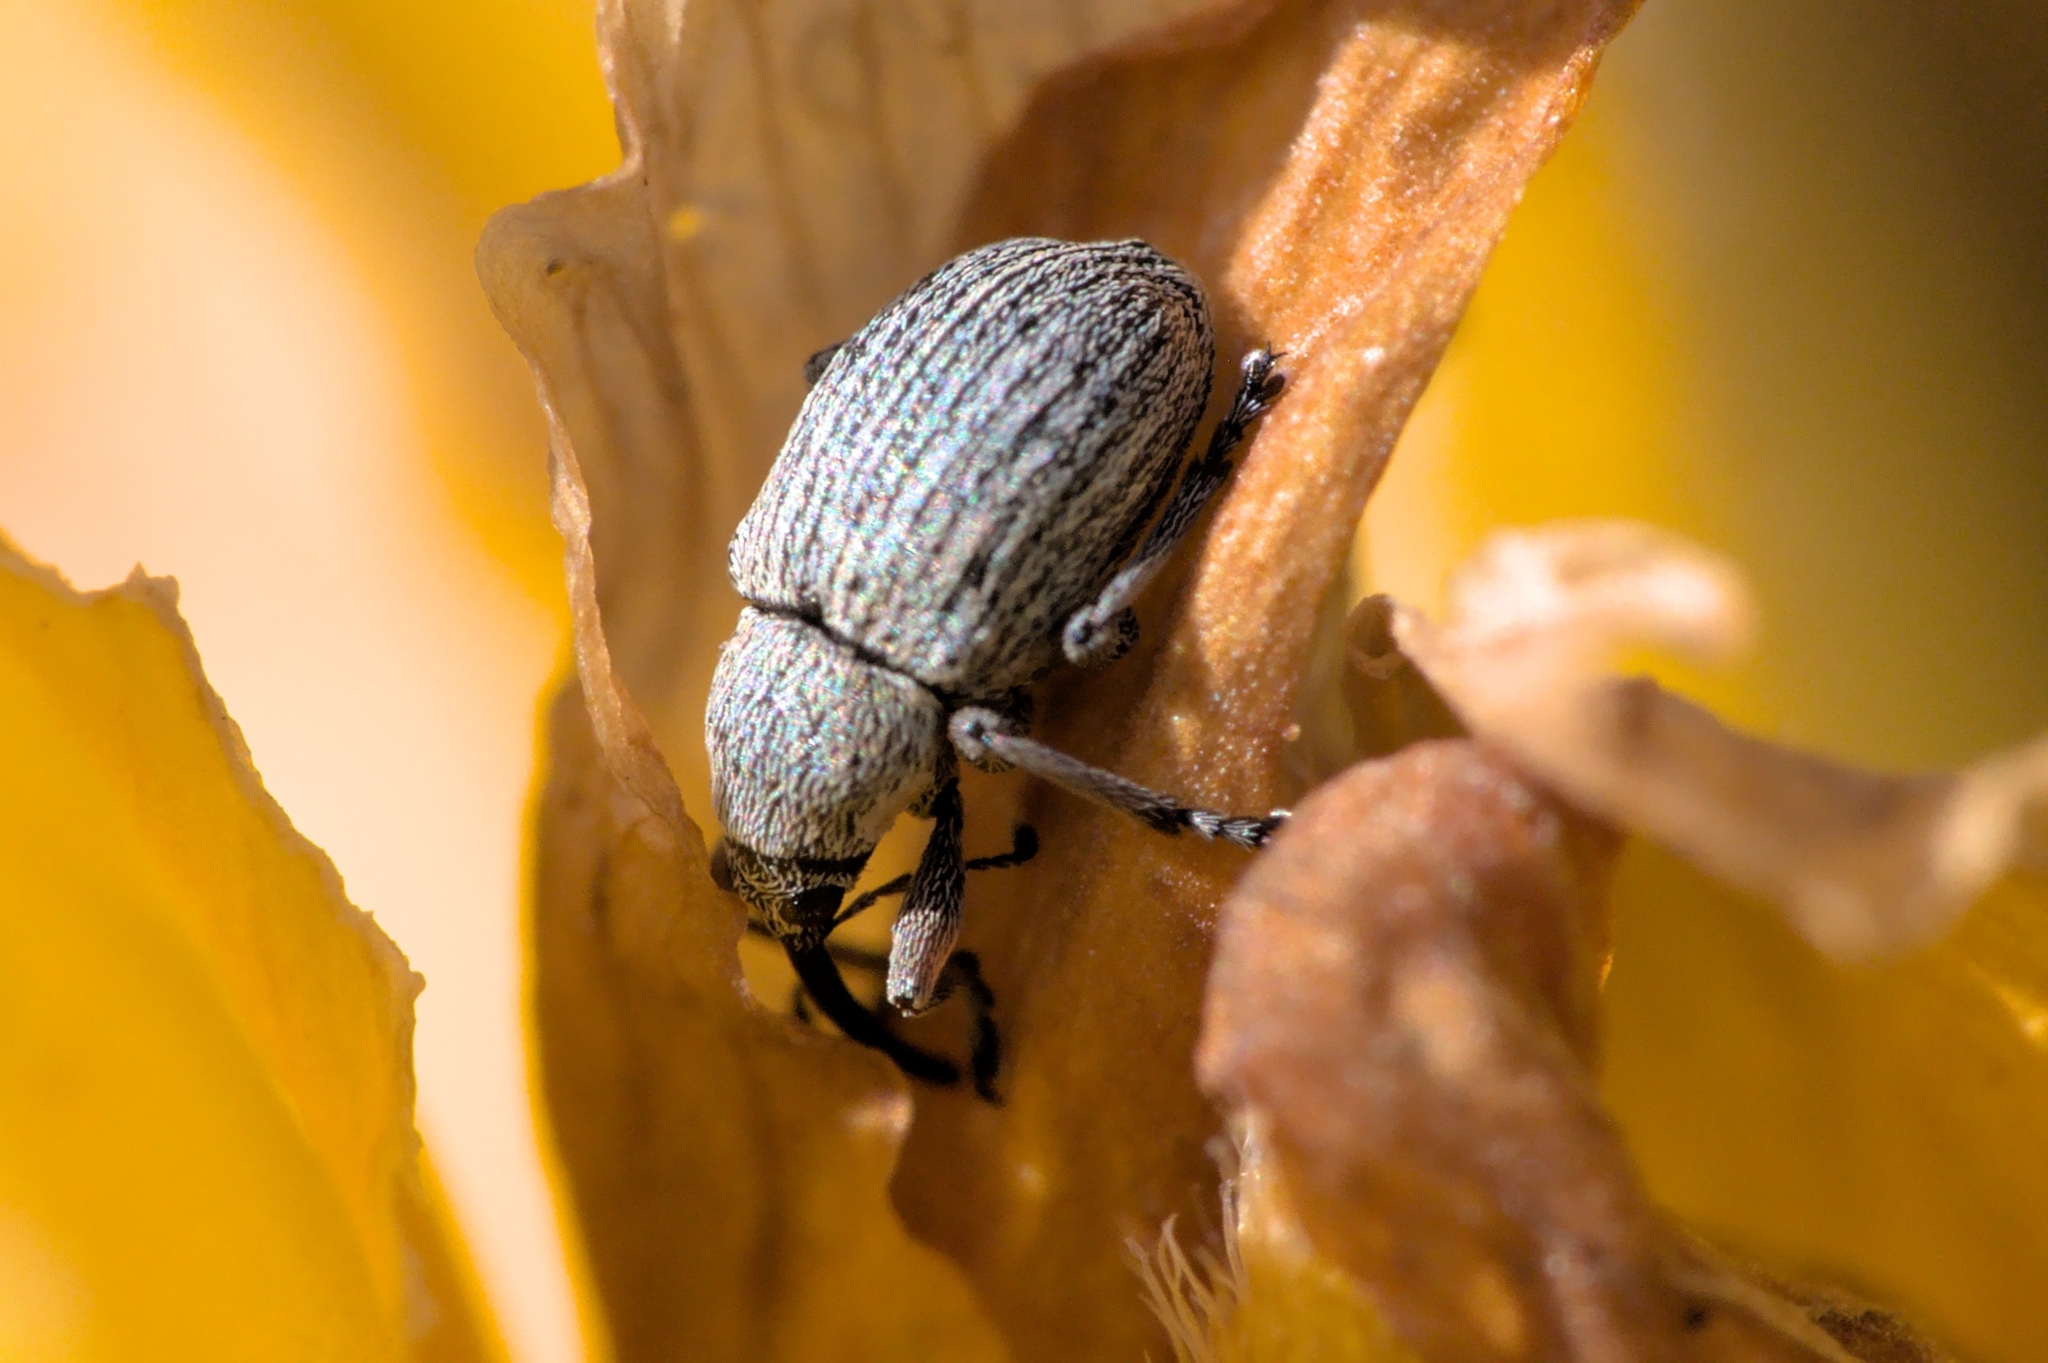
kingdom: Animalia
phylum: Arthropoda
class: Insecta
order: Coleoptera
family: Brentidae
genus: Exapion
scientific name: Exapion ulicis
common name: Gorse seed weevil
